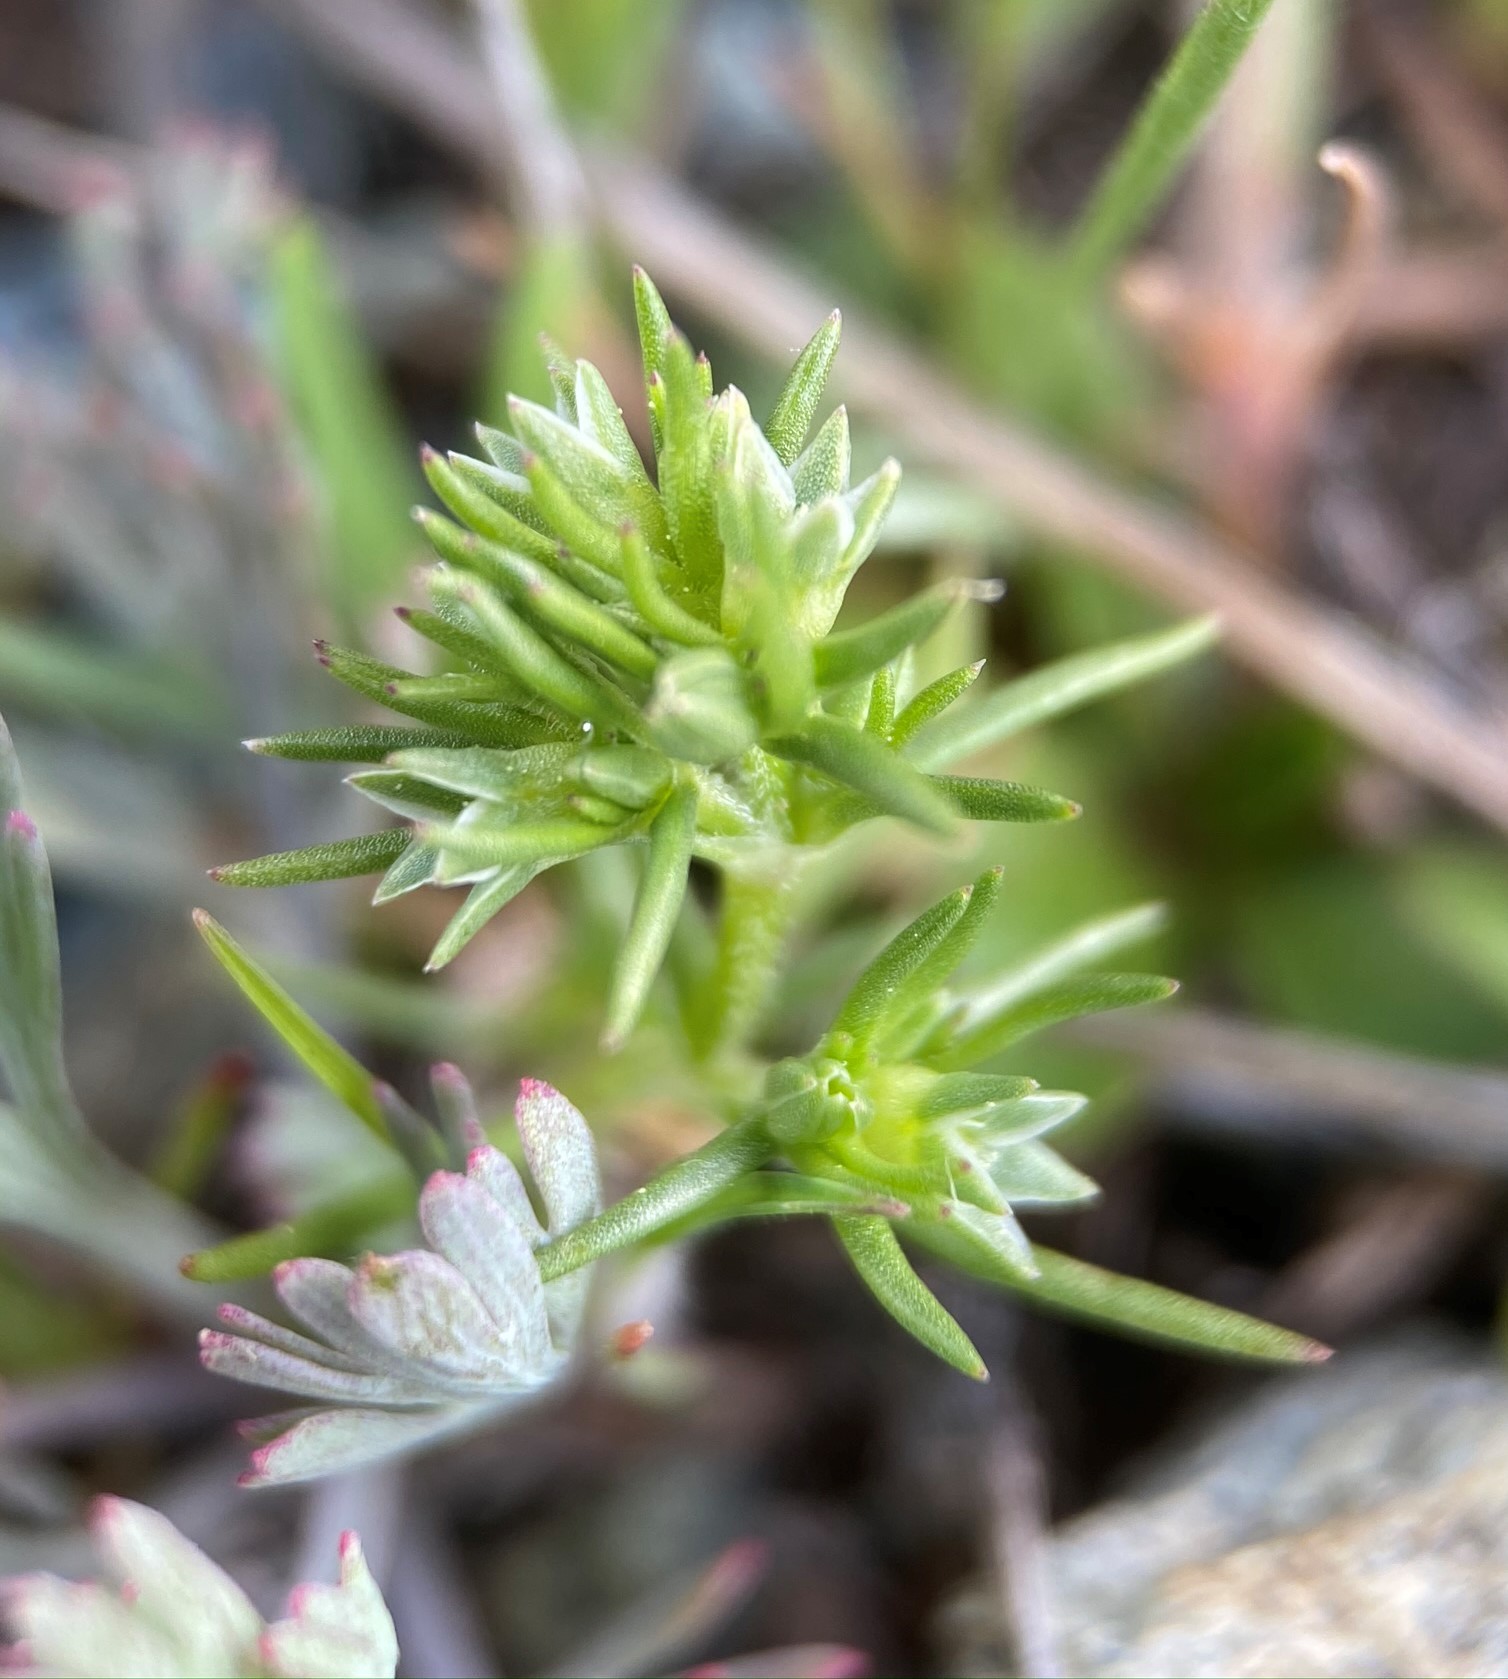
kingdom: Plantae
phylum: Tracheophyta
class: Magnoliopsida
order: Caryophyllales
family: Caryophyllaceae
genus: Scleranthus
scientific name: Scleranthus annuus
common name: Annual knawel
